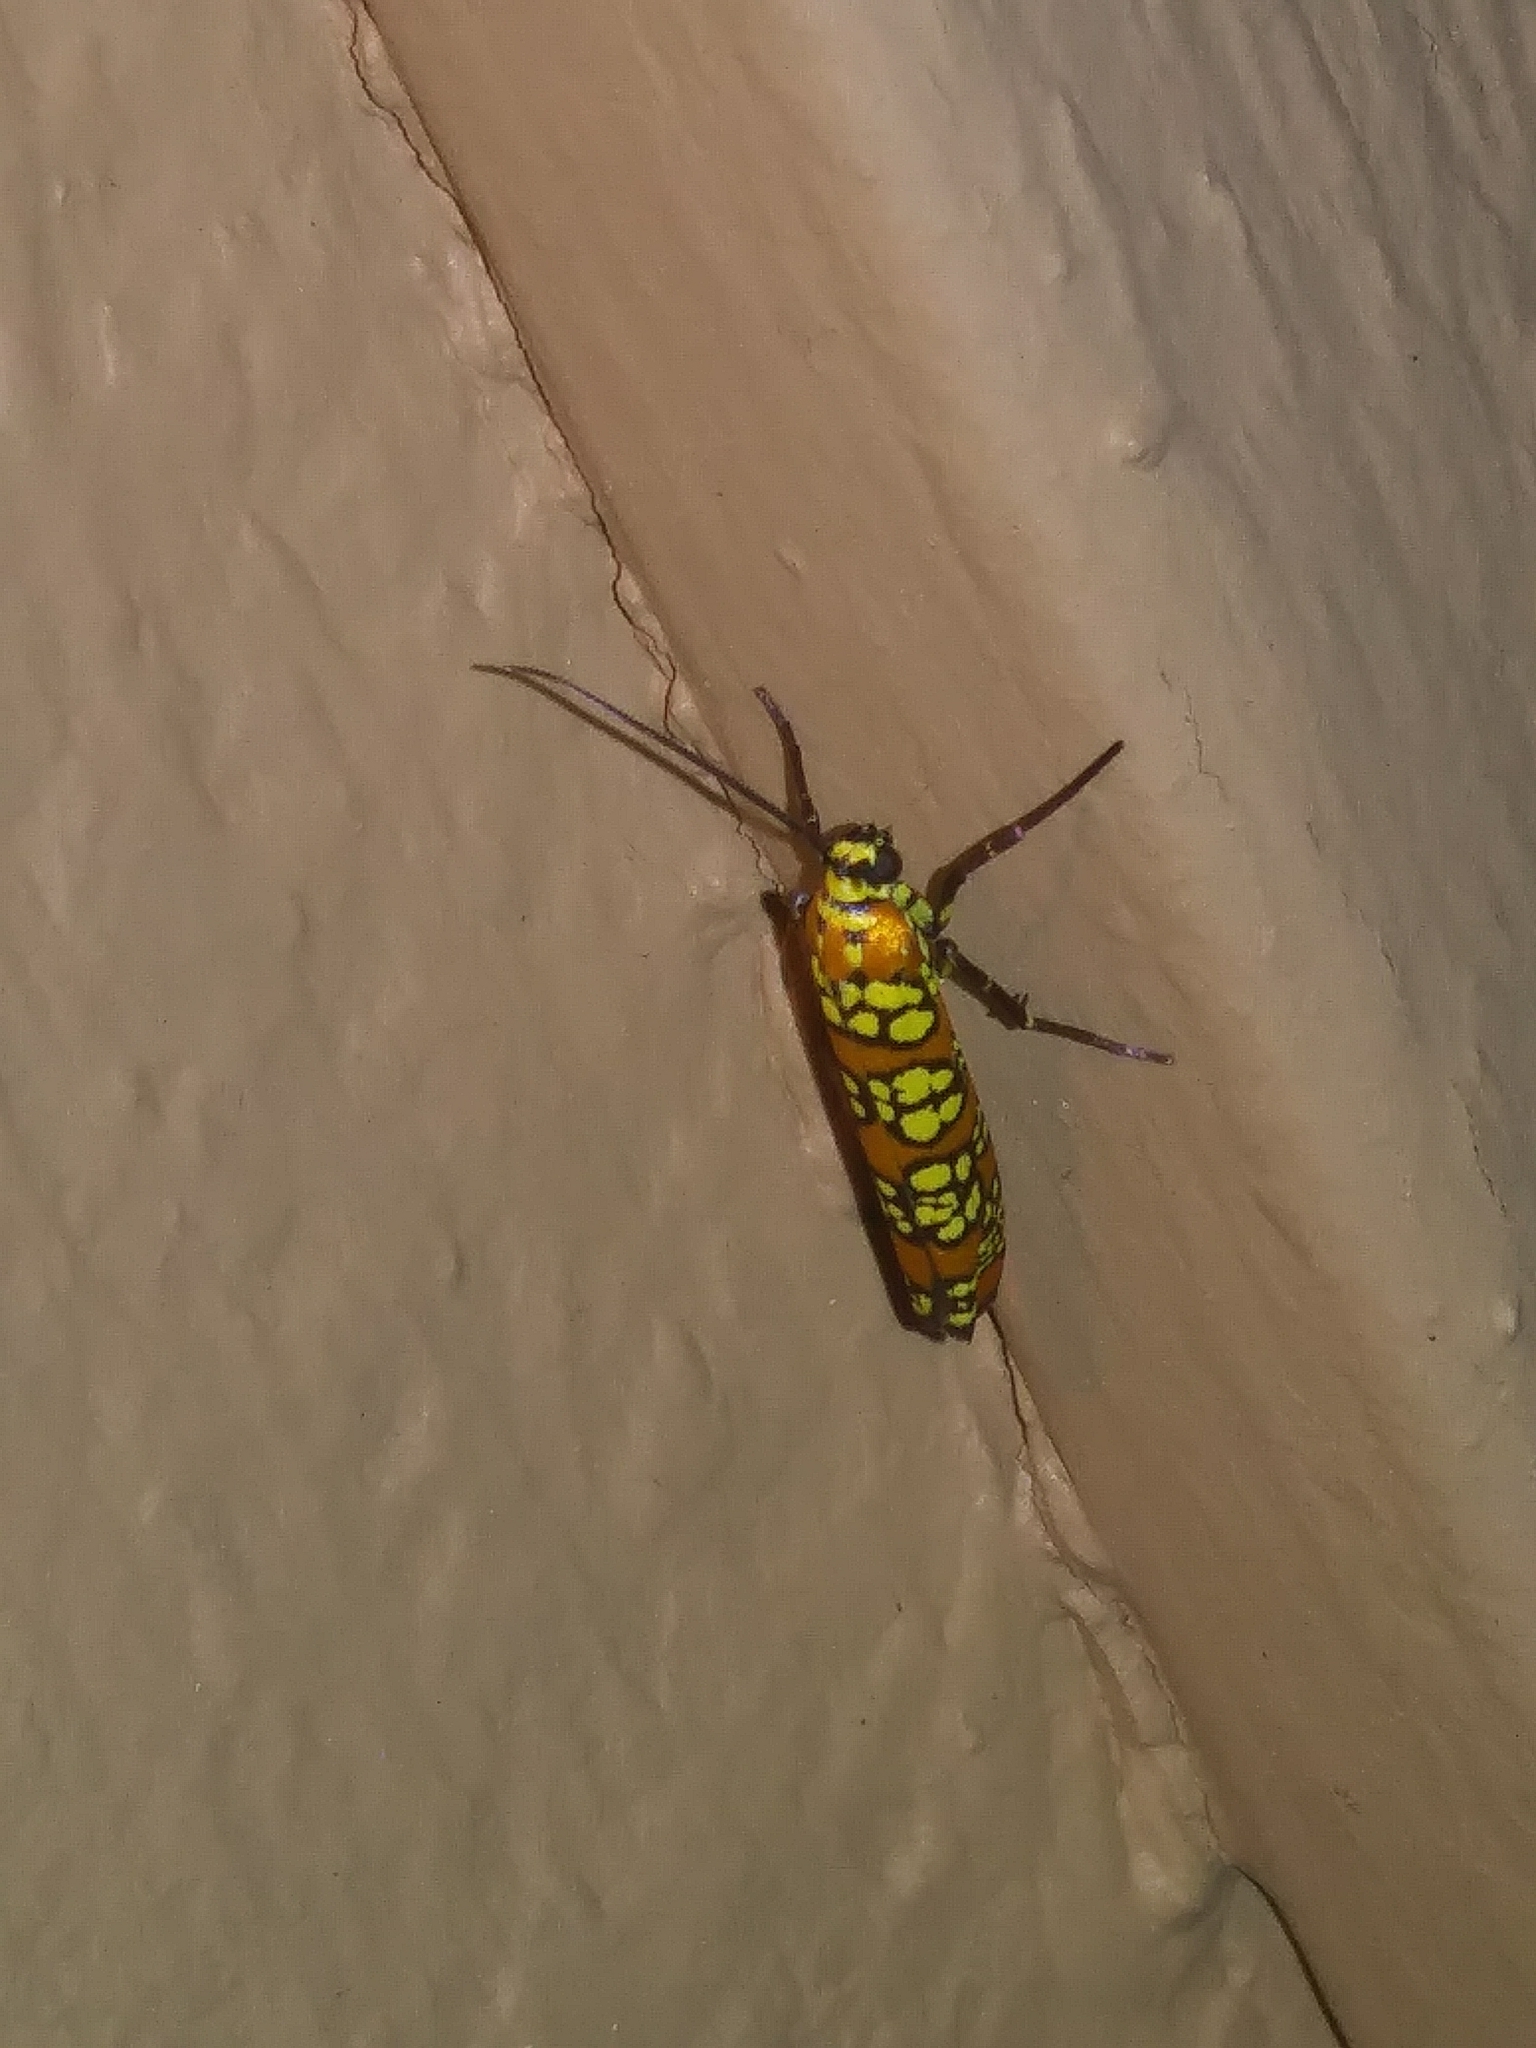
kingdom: Animalia
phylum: Arthropoda
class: Insecta
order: Lepidoptera
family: Attevidae
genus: Atteva
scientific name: Atteva punctella
